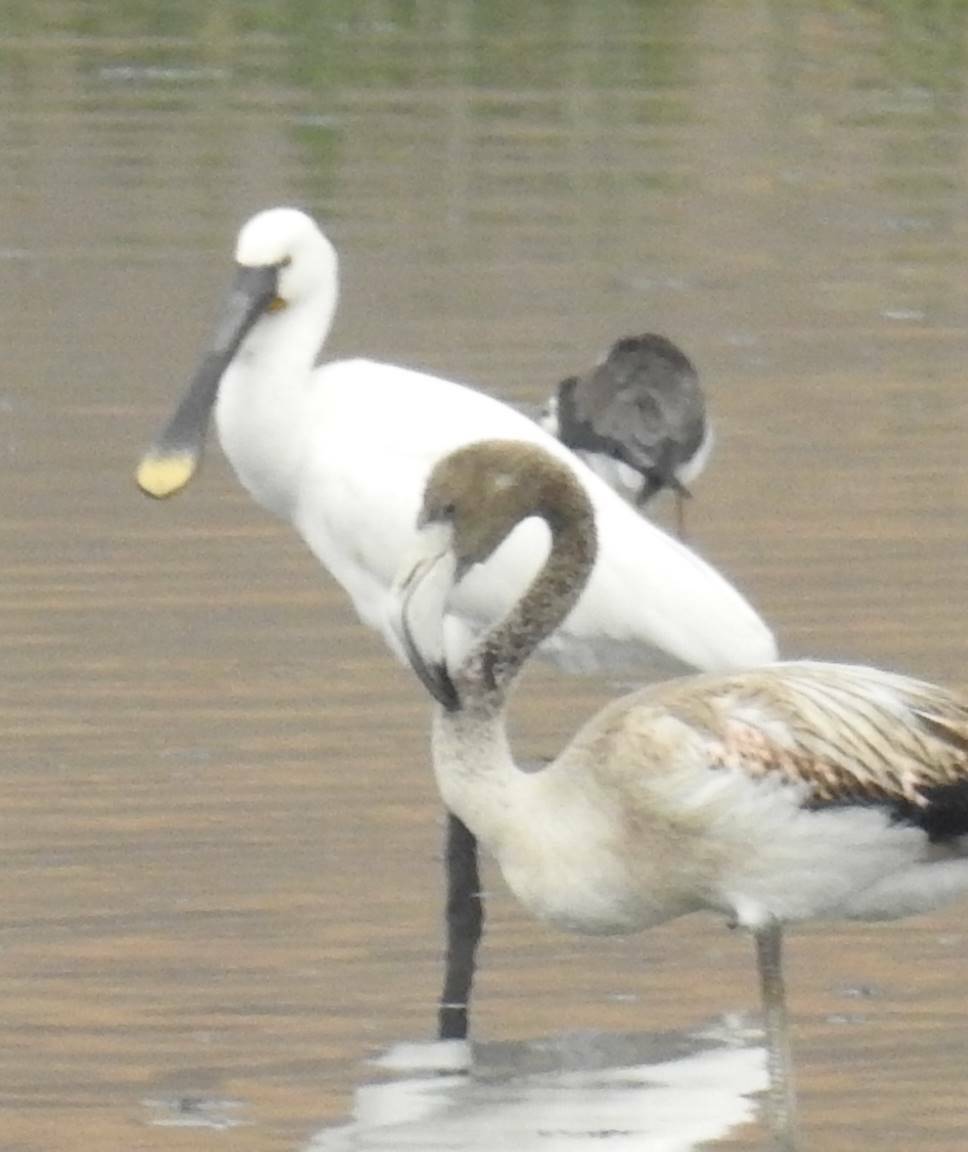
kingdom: Animalia
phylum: Chordata
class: Aves
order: Phoenicopteriformes
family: Phoenicopteridae
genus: Phoenicopterus
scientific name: Phoenicopterus roseus
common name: Greater flamingo
